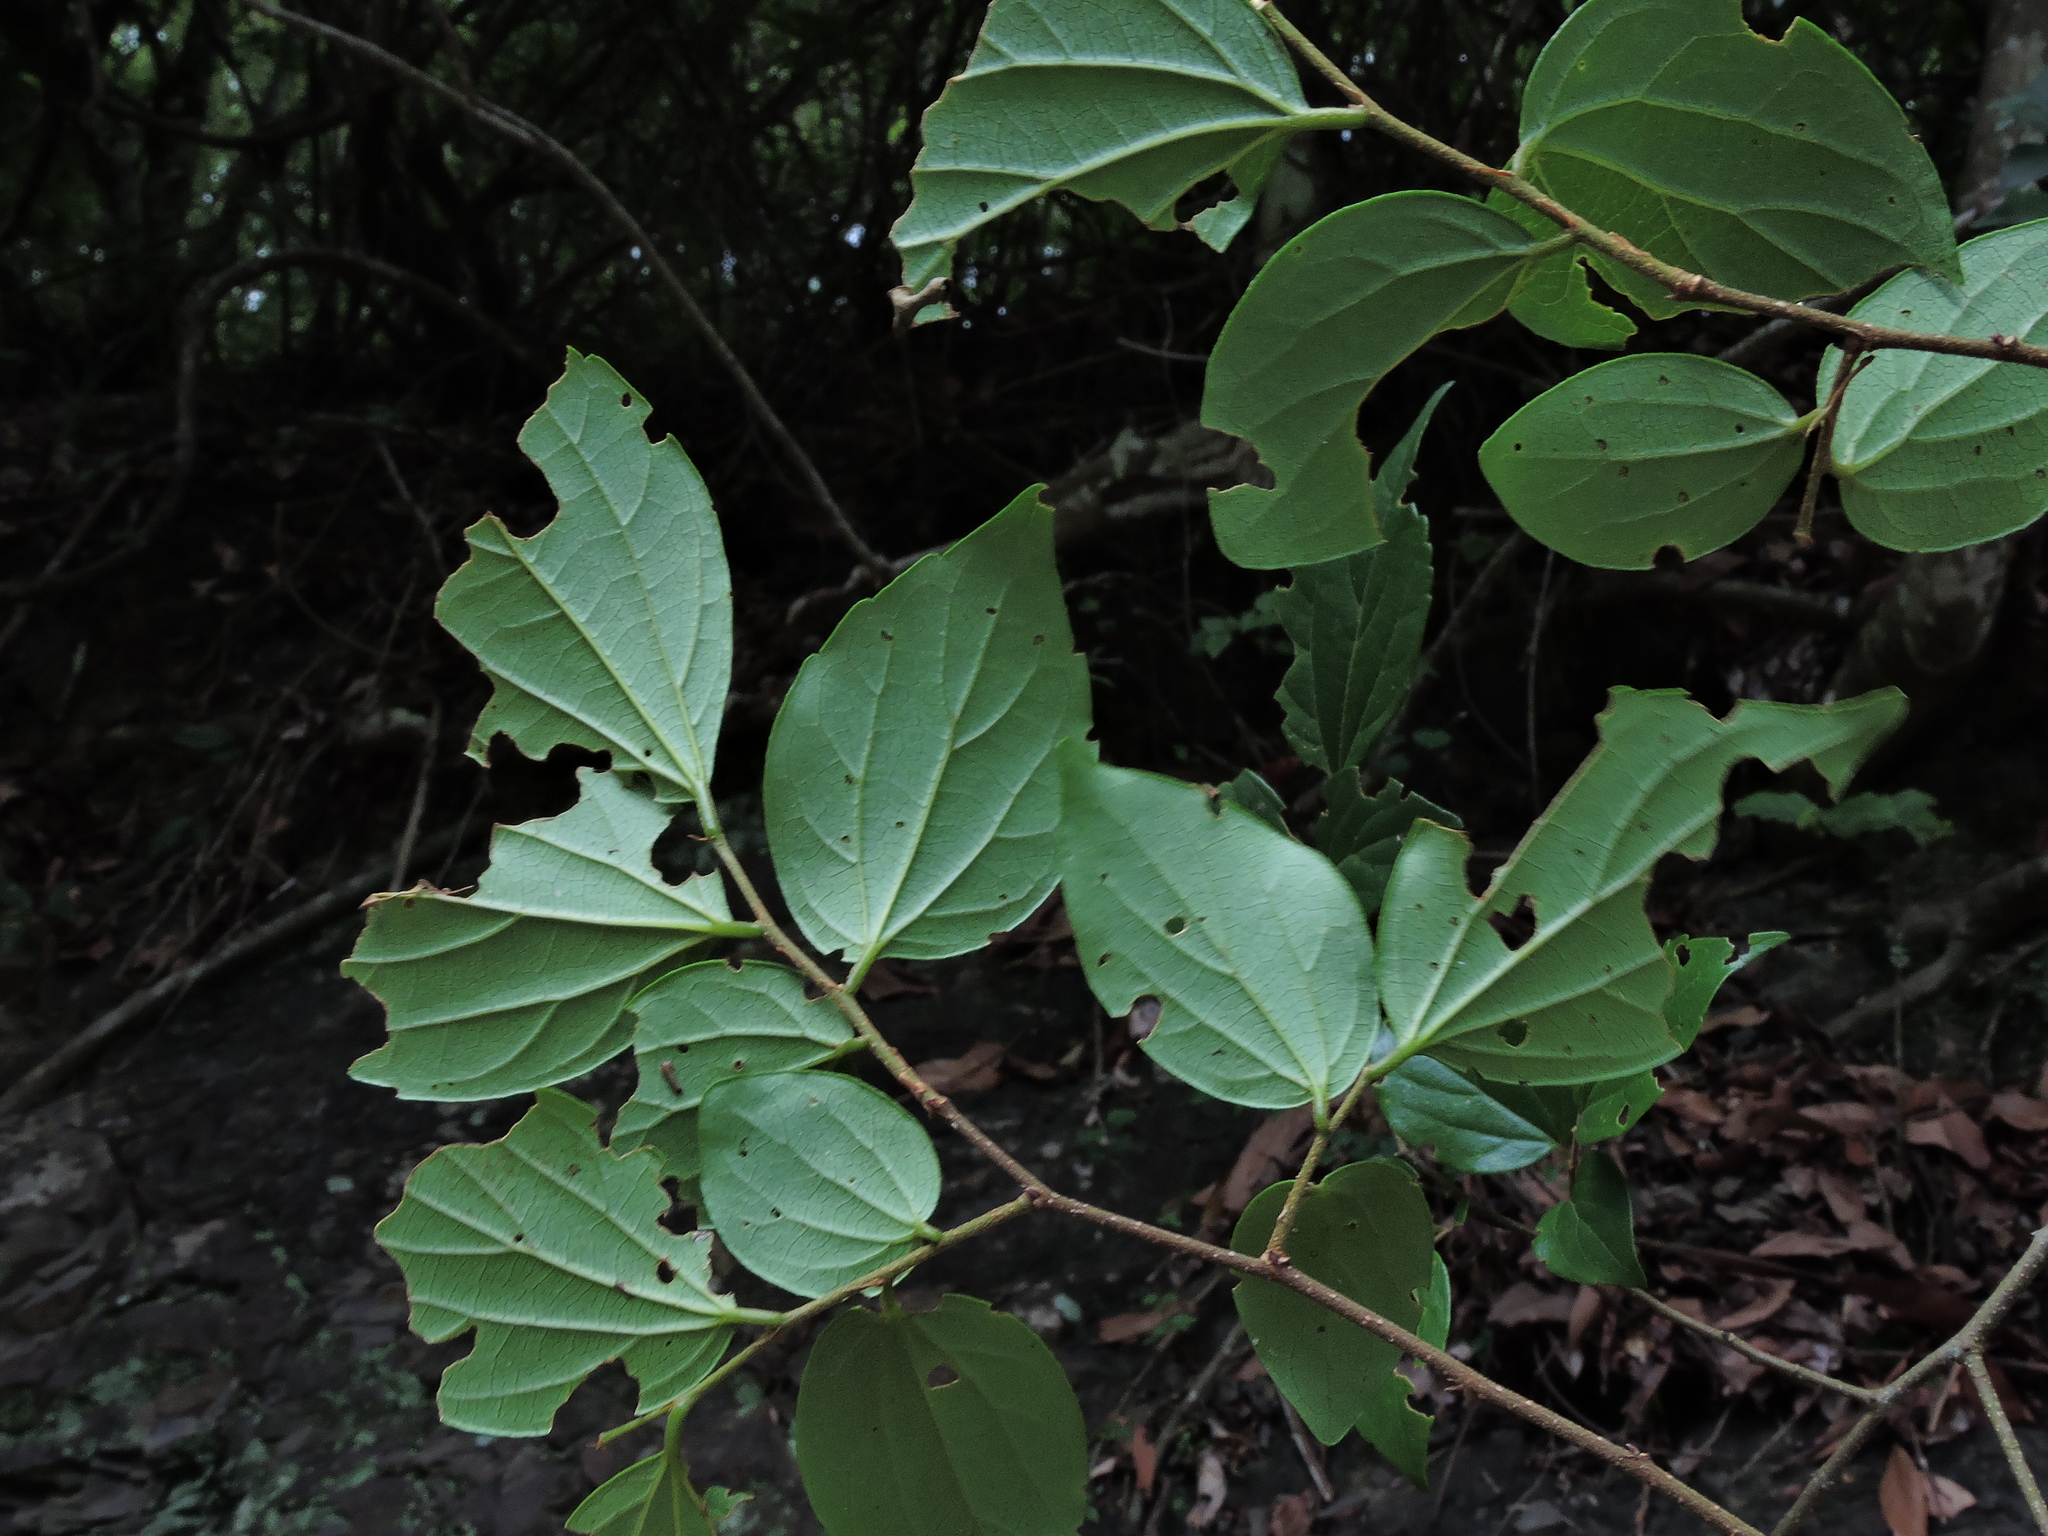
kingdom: Plantae
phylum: Tracheophyta
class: Magnoliopsida
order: Rosales
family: Cannabaceae
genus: Celtis
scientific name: Celtis biondii
